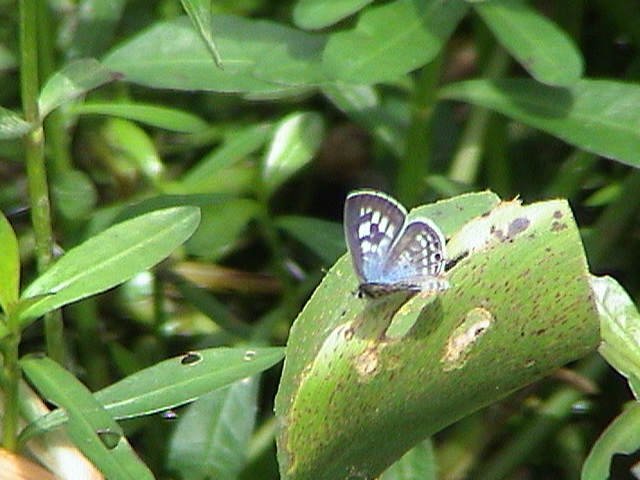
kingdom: Animalia
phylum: Arthropoda
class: Insecta
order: Lepidoptera
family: Lycaenidae
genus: Leptotes
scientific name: Leptotes plinius
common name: Zebra blue
